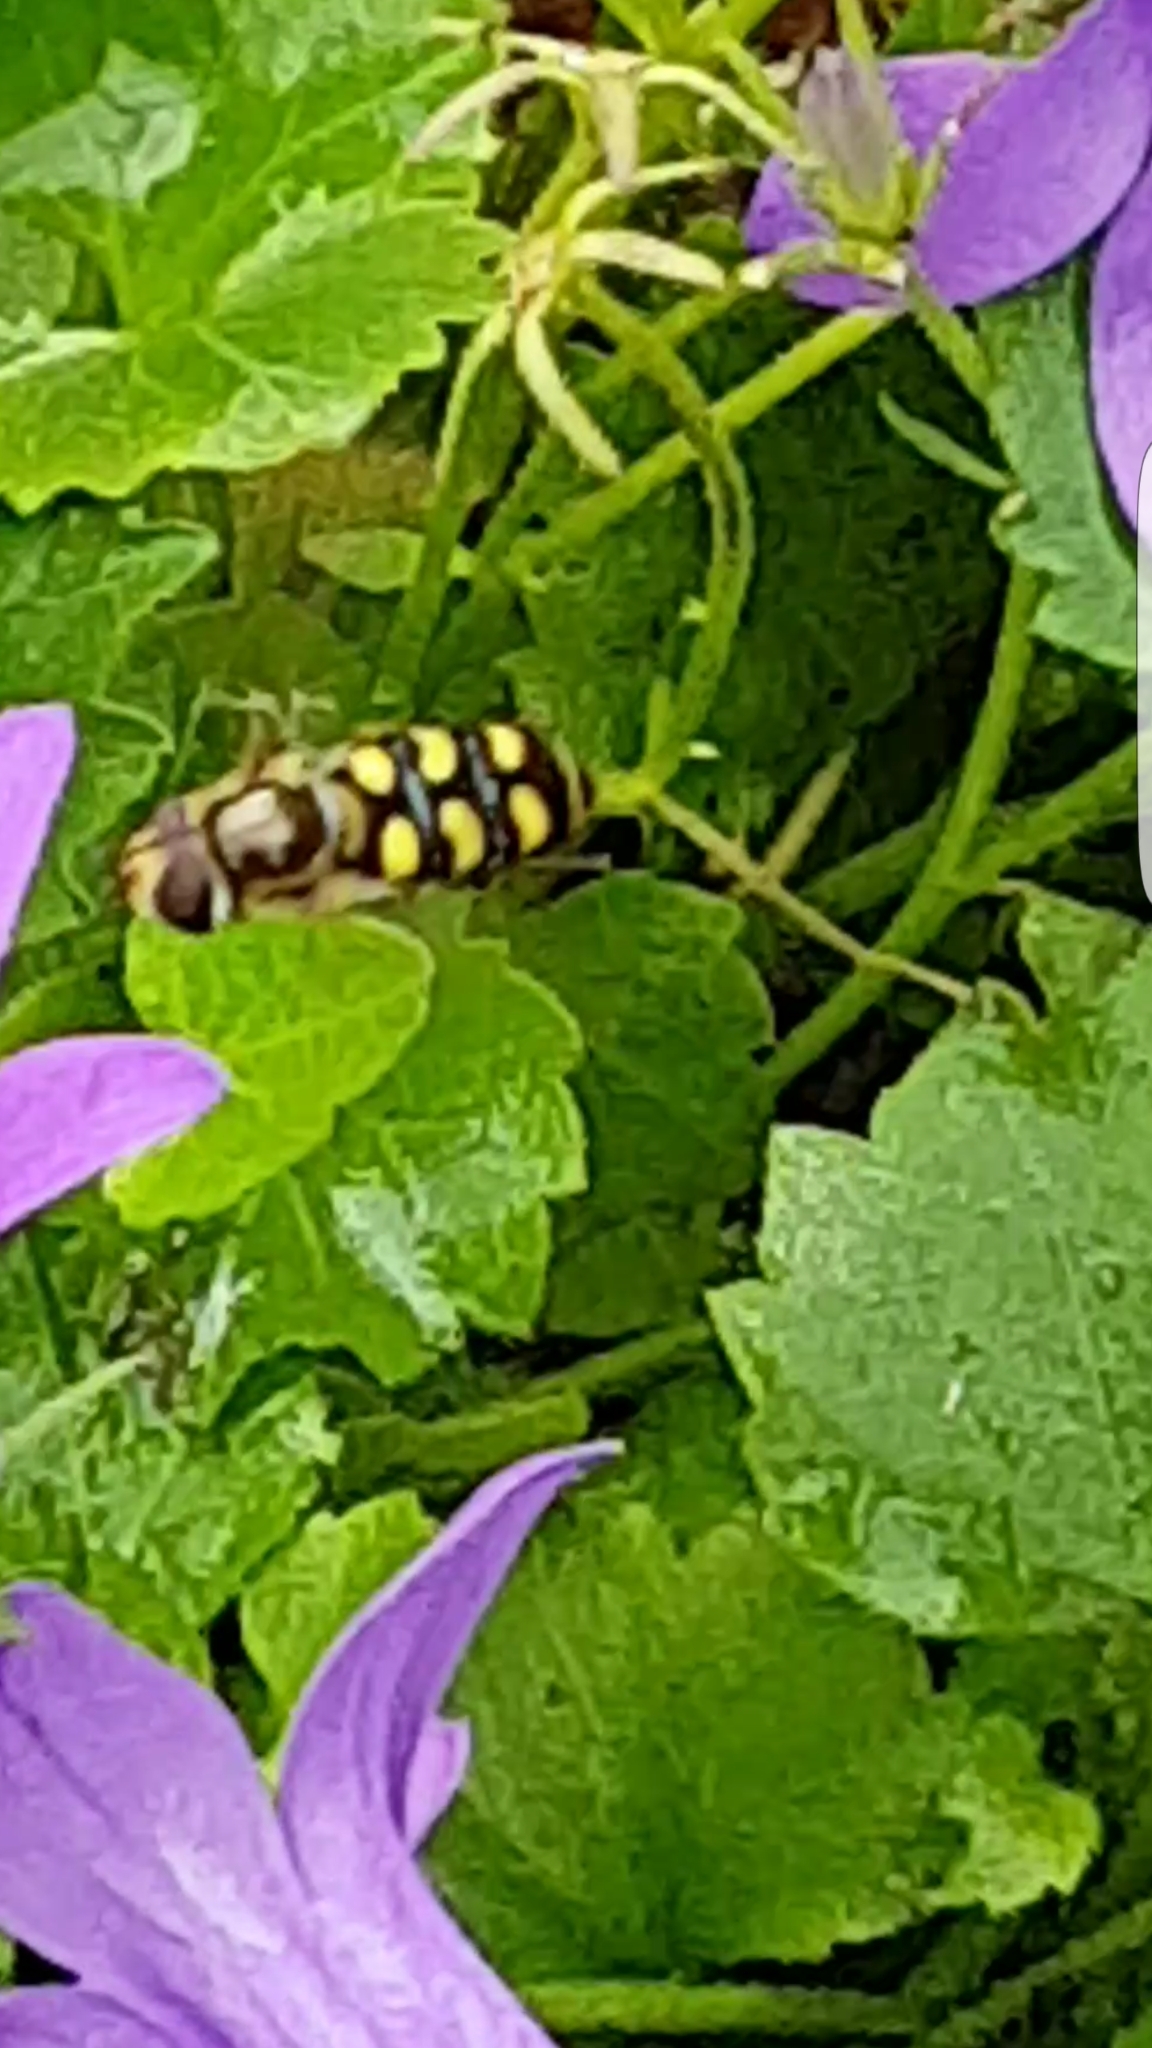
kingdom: Animalia
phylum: Arthropoda
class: Insecta
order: Diptera
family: Syrphidae
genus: Eupeodes
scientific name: Eupeodes
